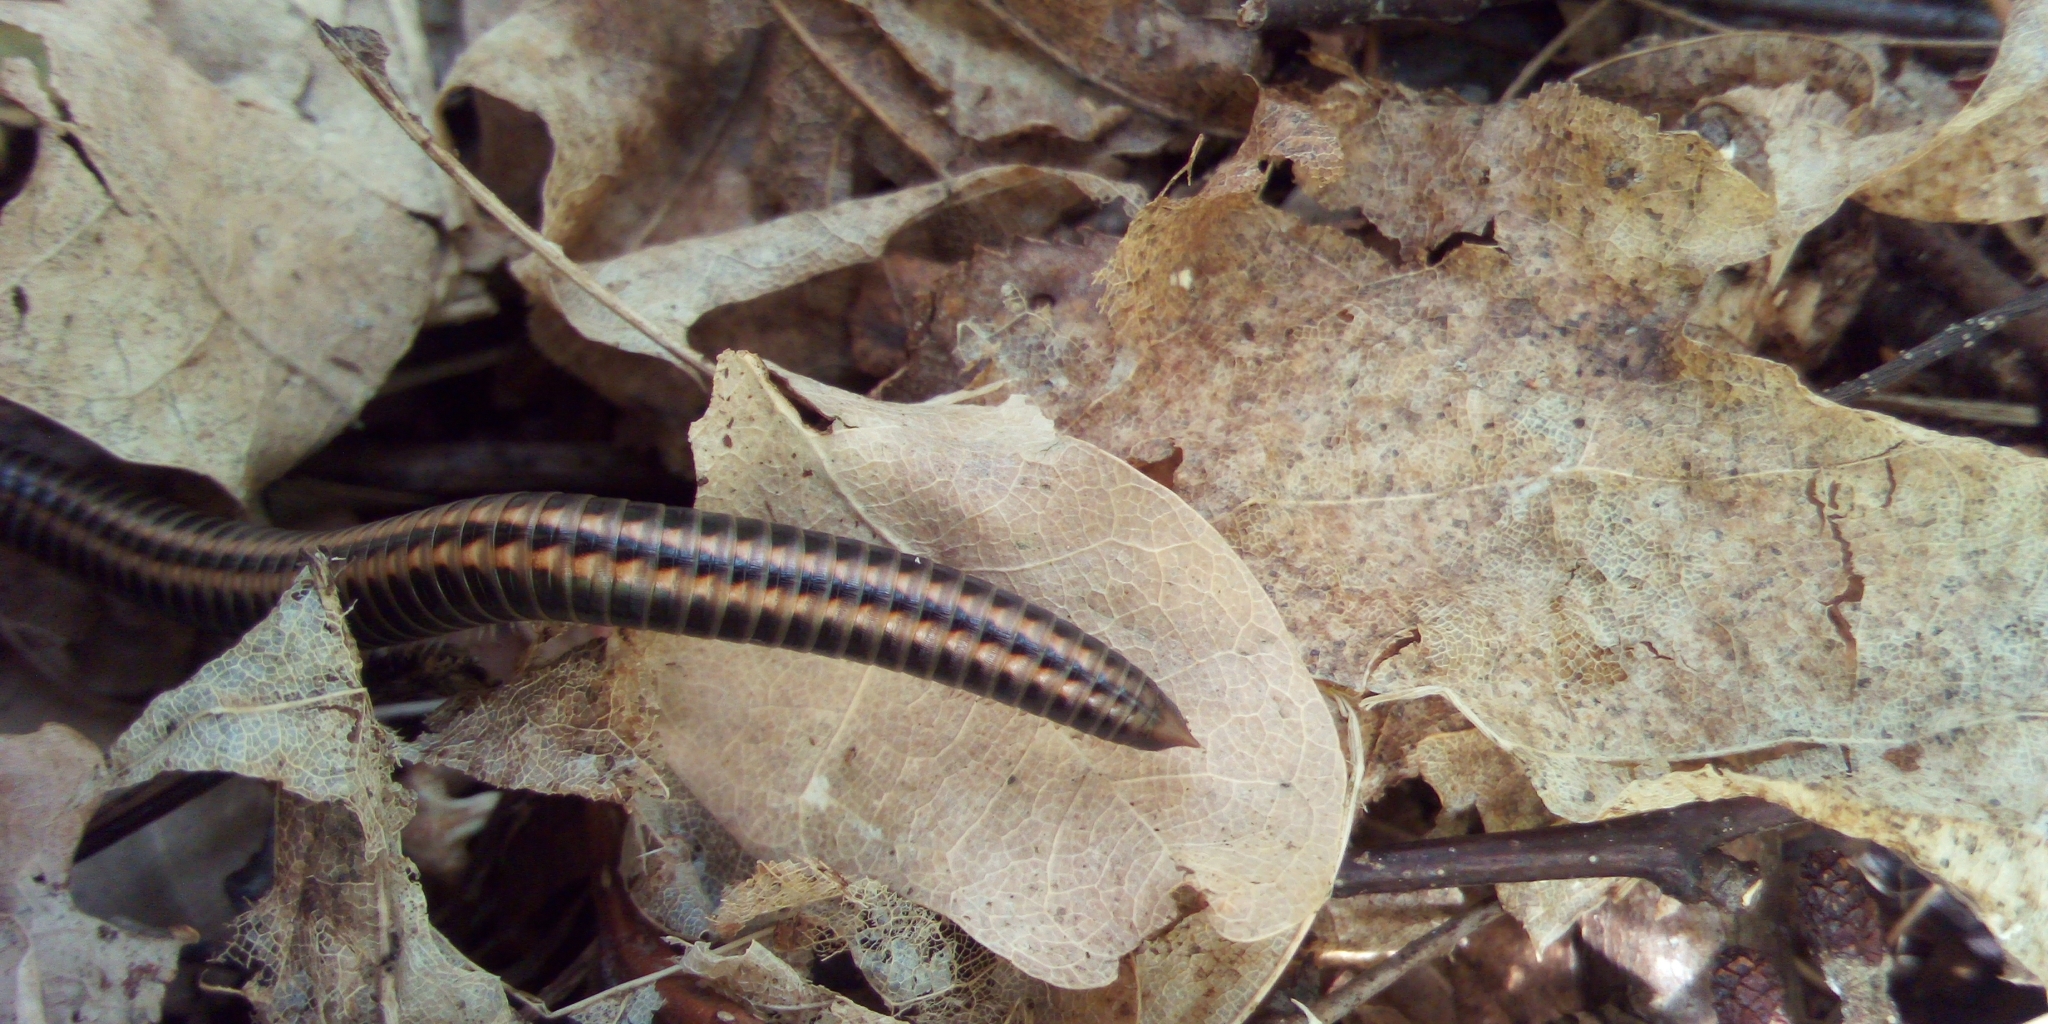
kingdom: Animalia
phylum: Arthropoda
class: Diplopoda
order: Julida
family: Julidae
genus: Ommatoiulus
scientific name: Ommatoiulus sabulosus
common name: Striped millipede
